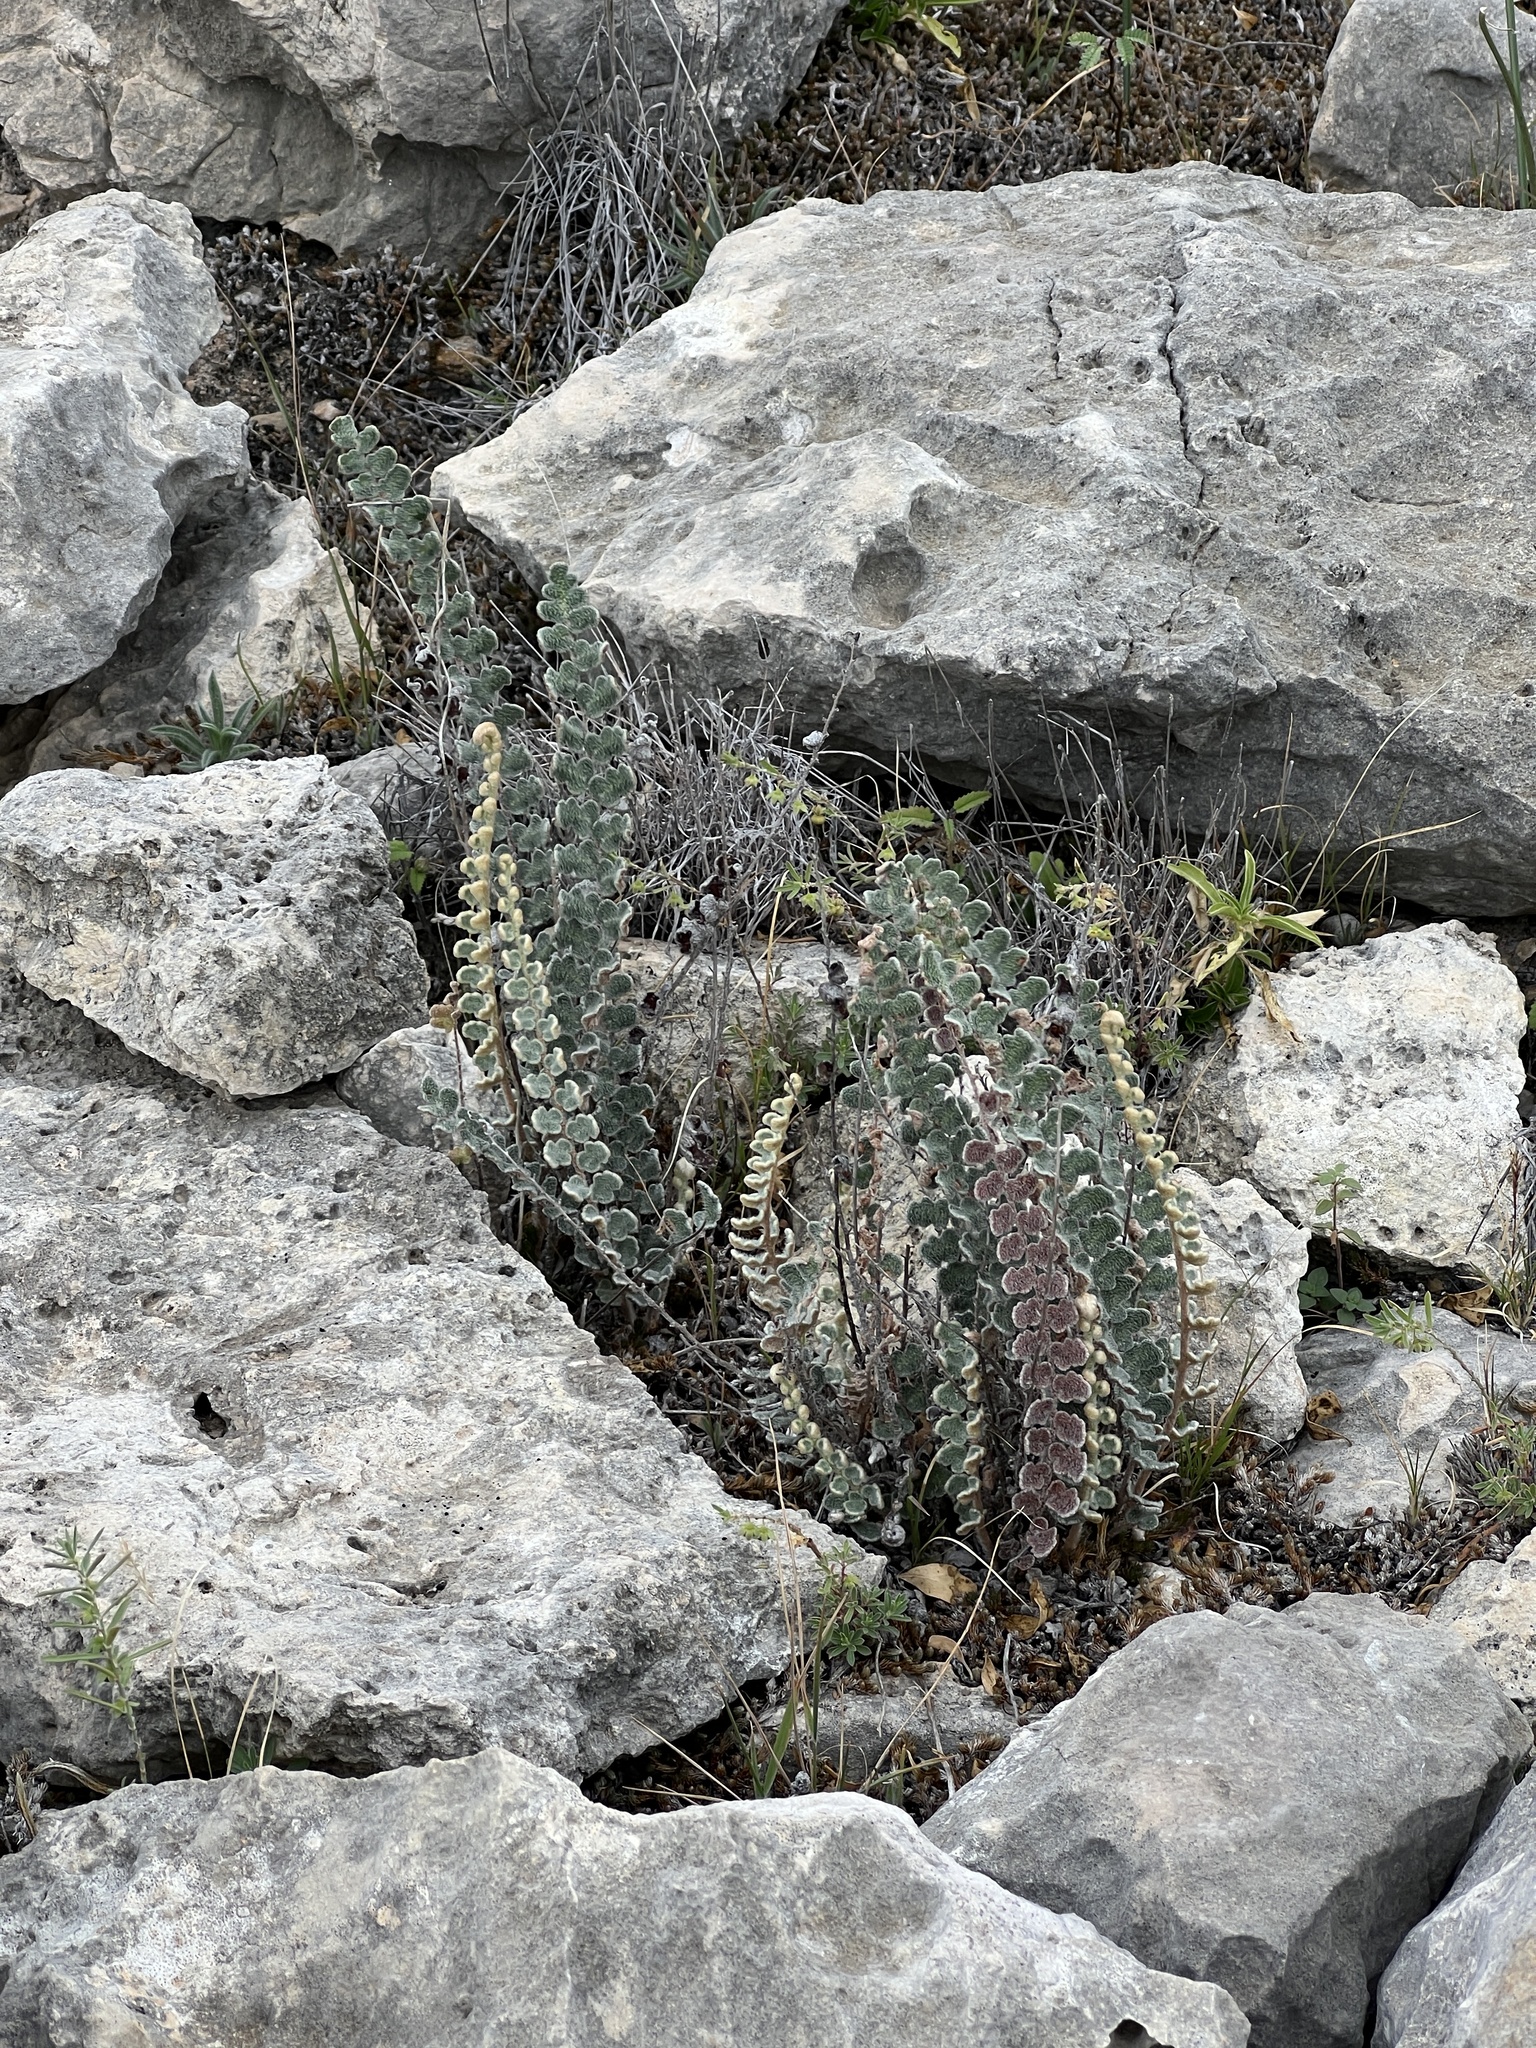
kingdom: Plantae
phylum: Tracheophyta
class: Polypodiopsida
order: Polypodiales
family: Pteridaceae
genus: Astrolepis
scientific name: Astrolepis integerrima
